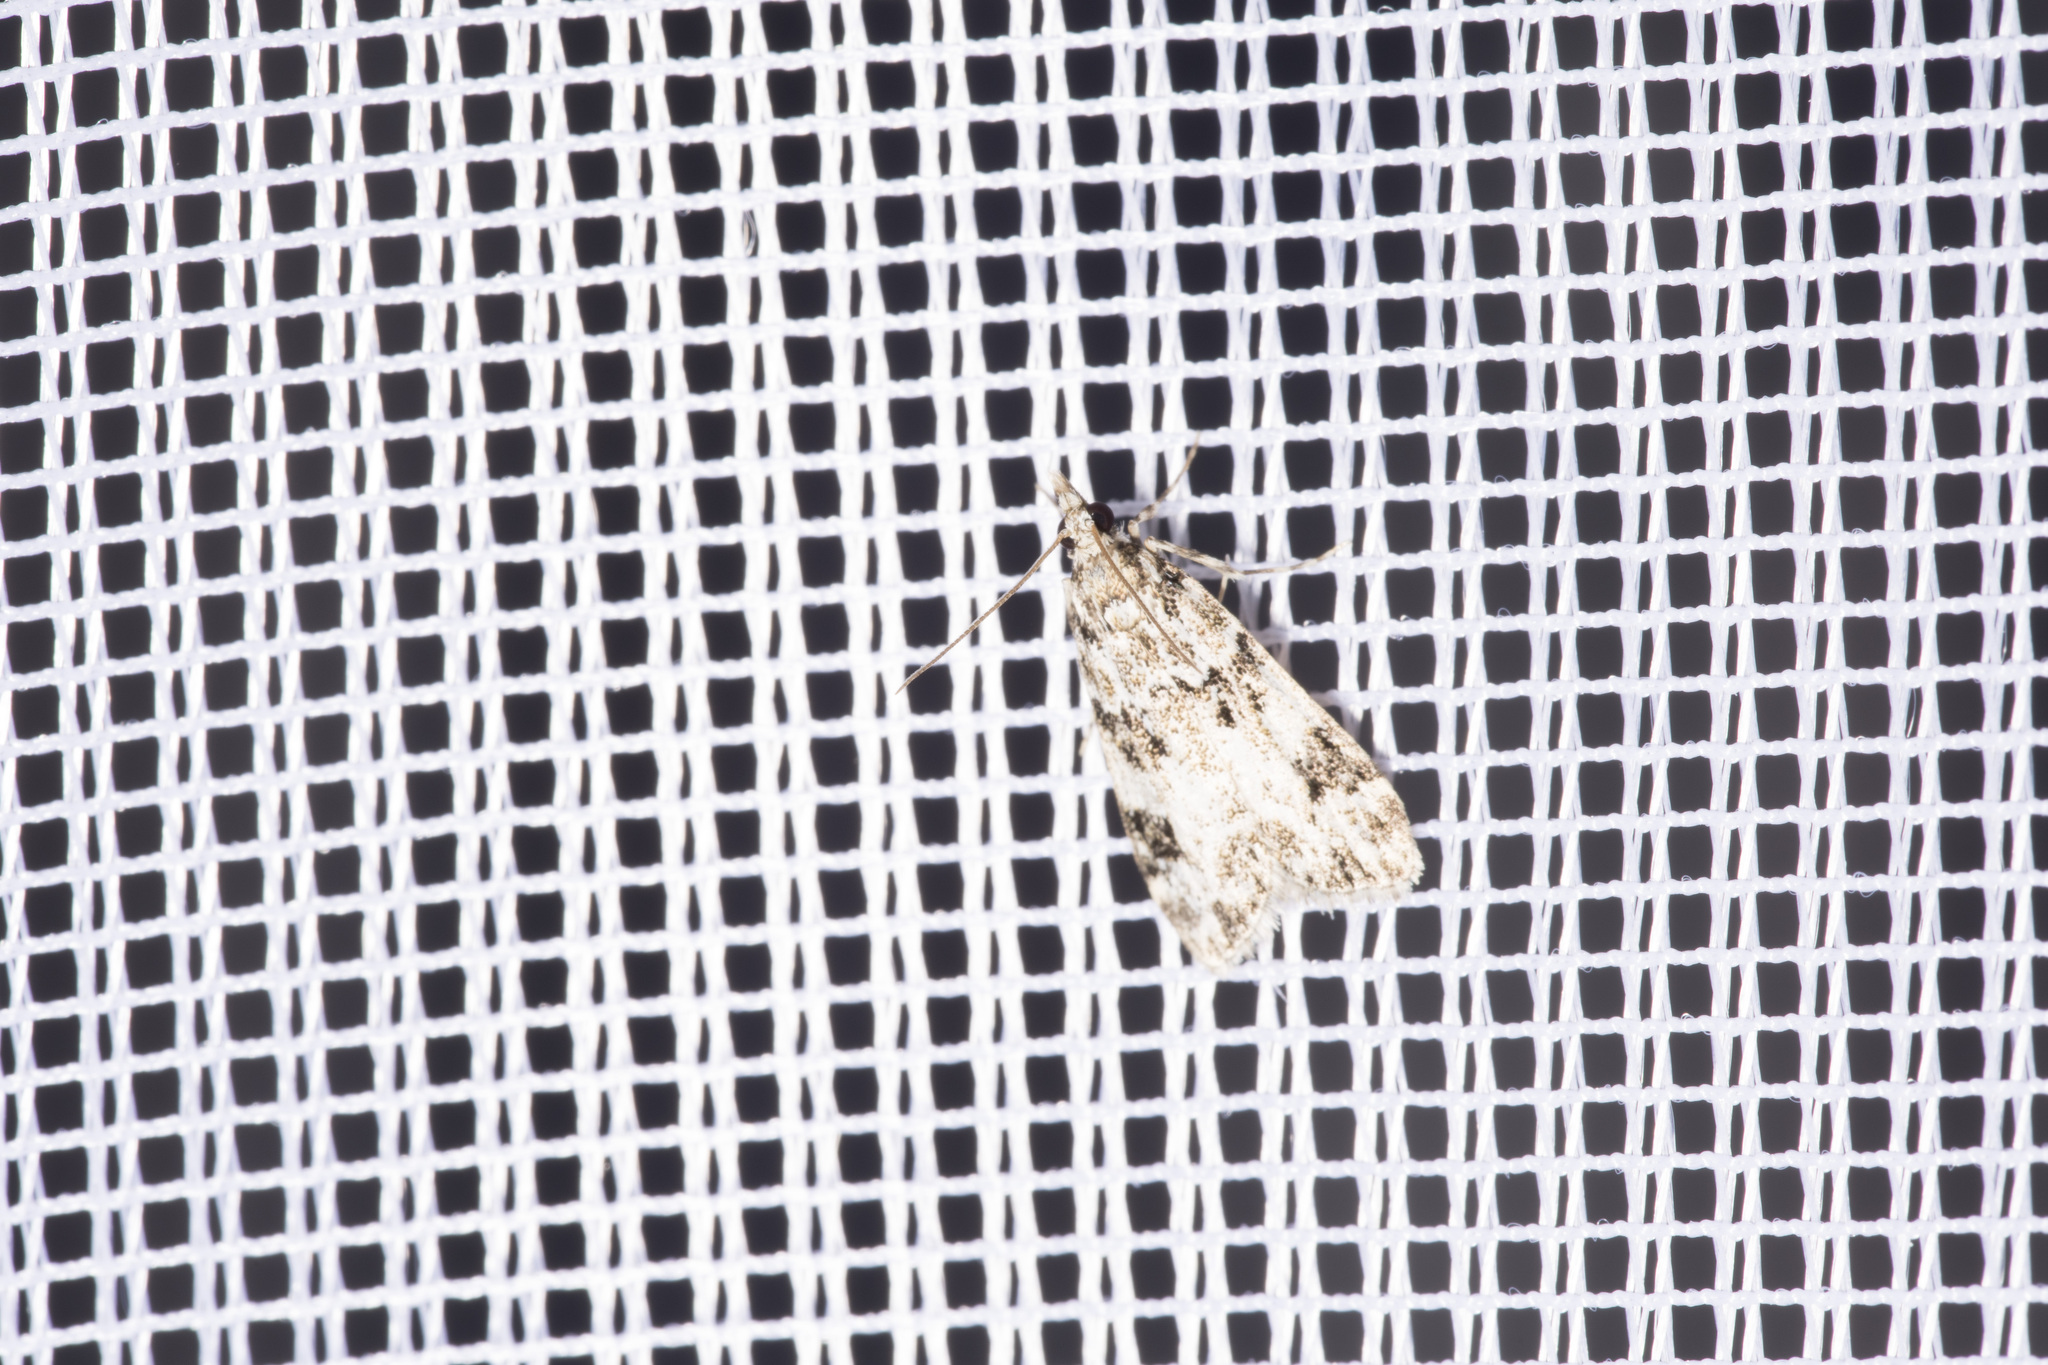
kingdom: Animalia
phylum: Arthropoda
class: Insecta
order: Lepidoptera
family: Crambidae
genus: Eudonia
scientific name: Eudonia delunella
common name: Pied grey
